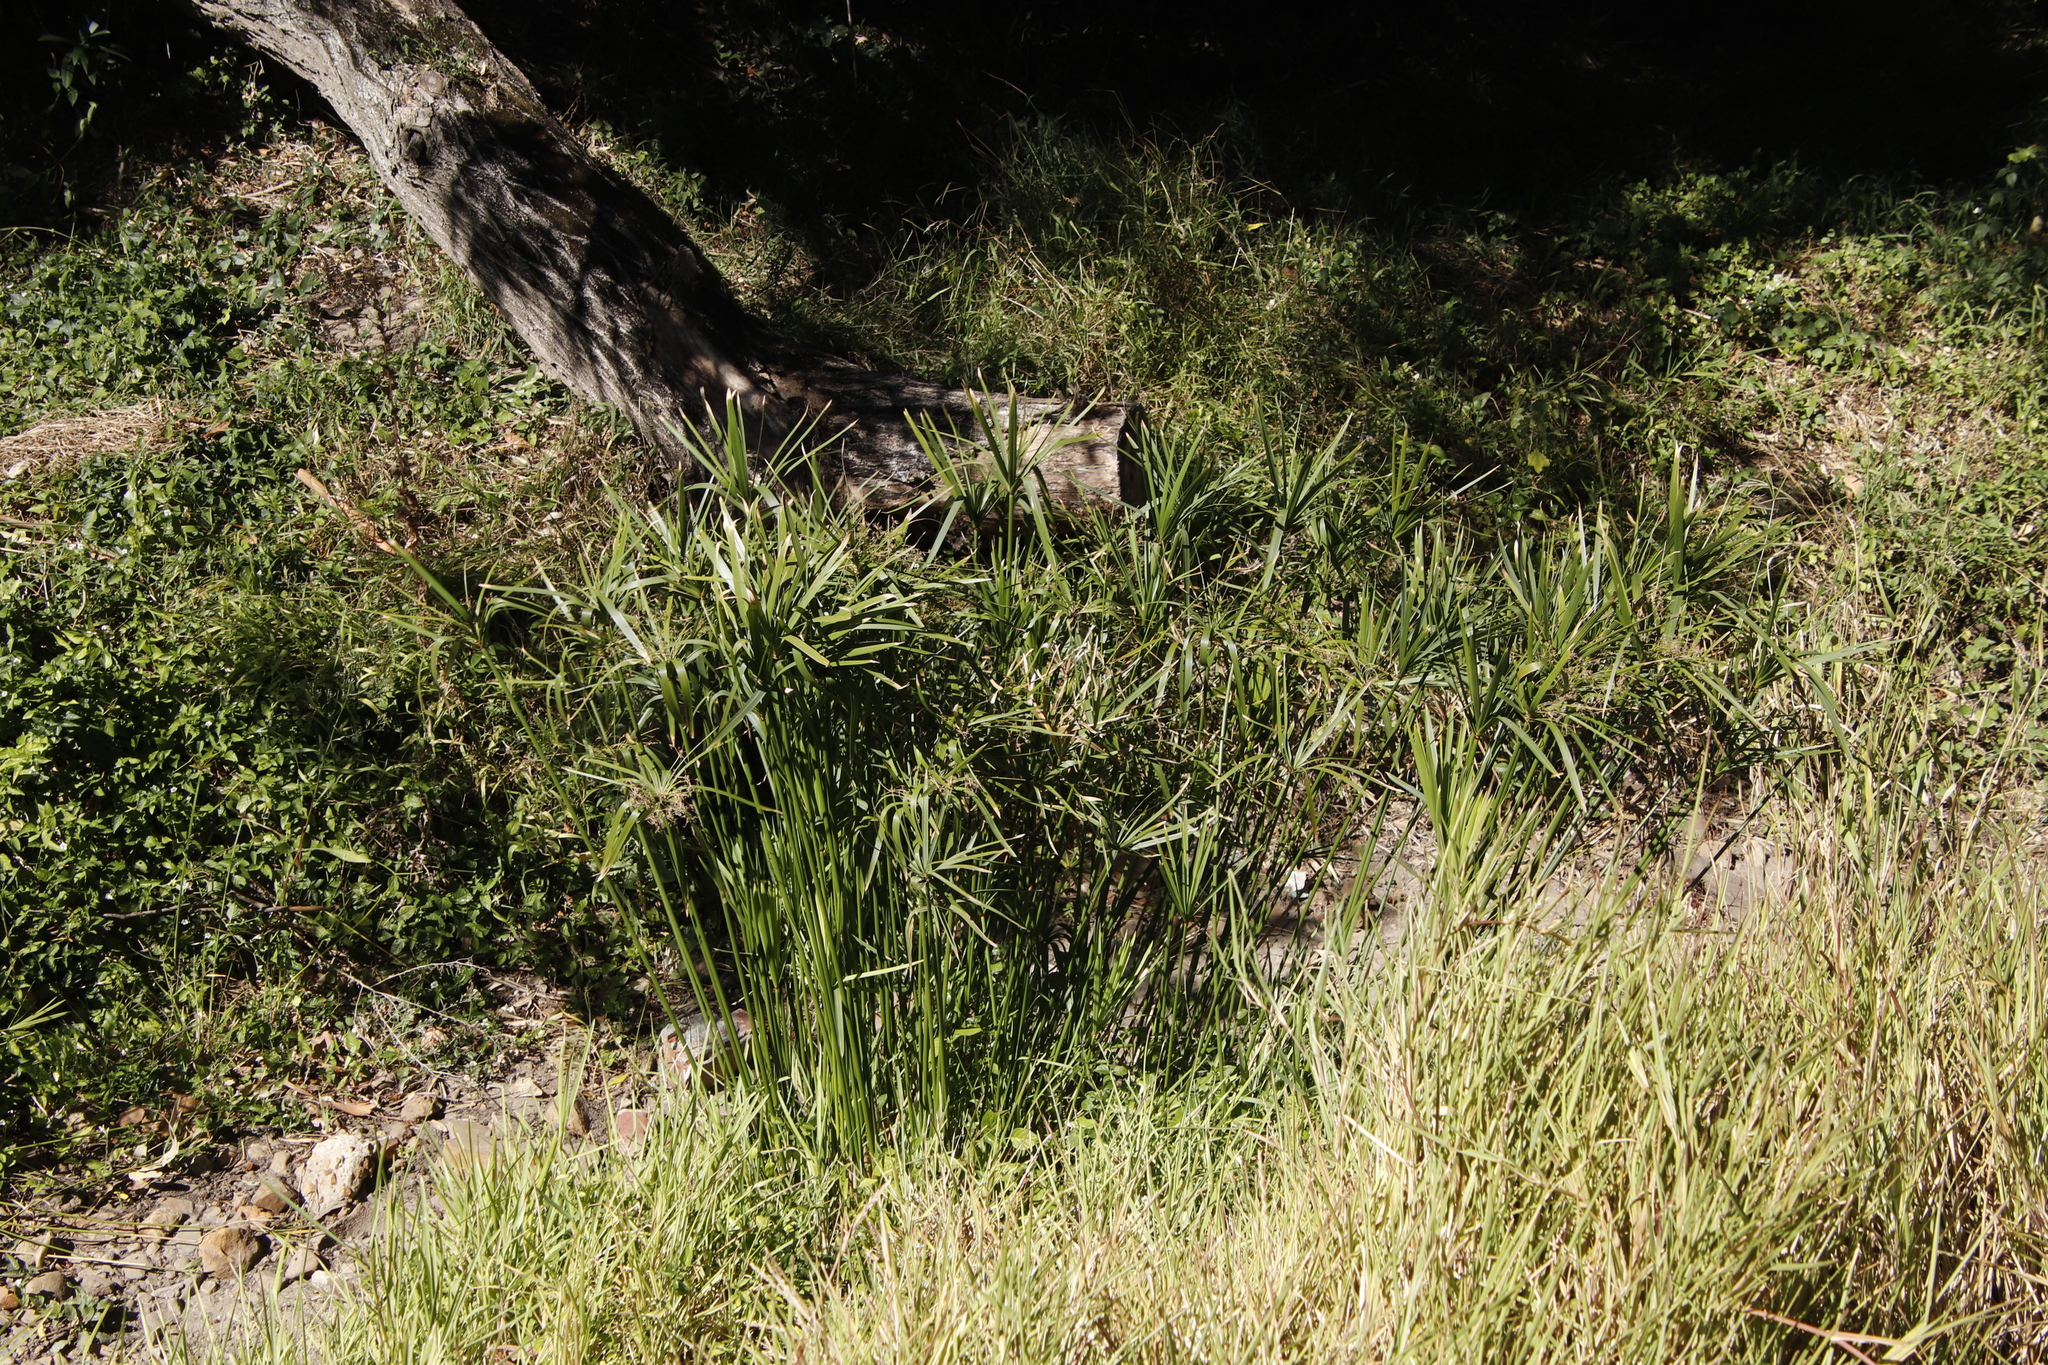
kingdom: Plantae
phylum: Tracheophyta
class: Liliopsida
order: Poales
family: Cyperaceae
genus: Cyperus
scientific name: Cyperus textilis
